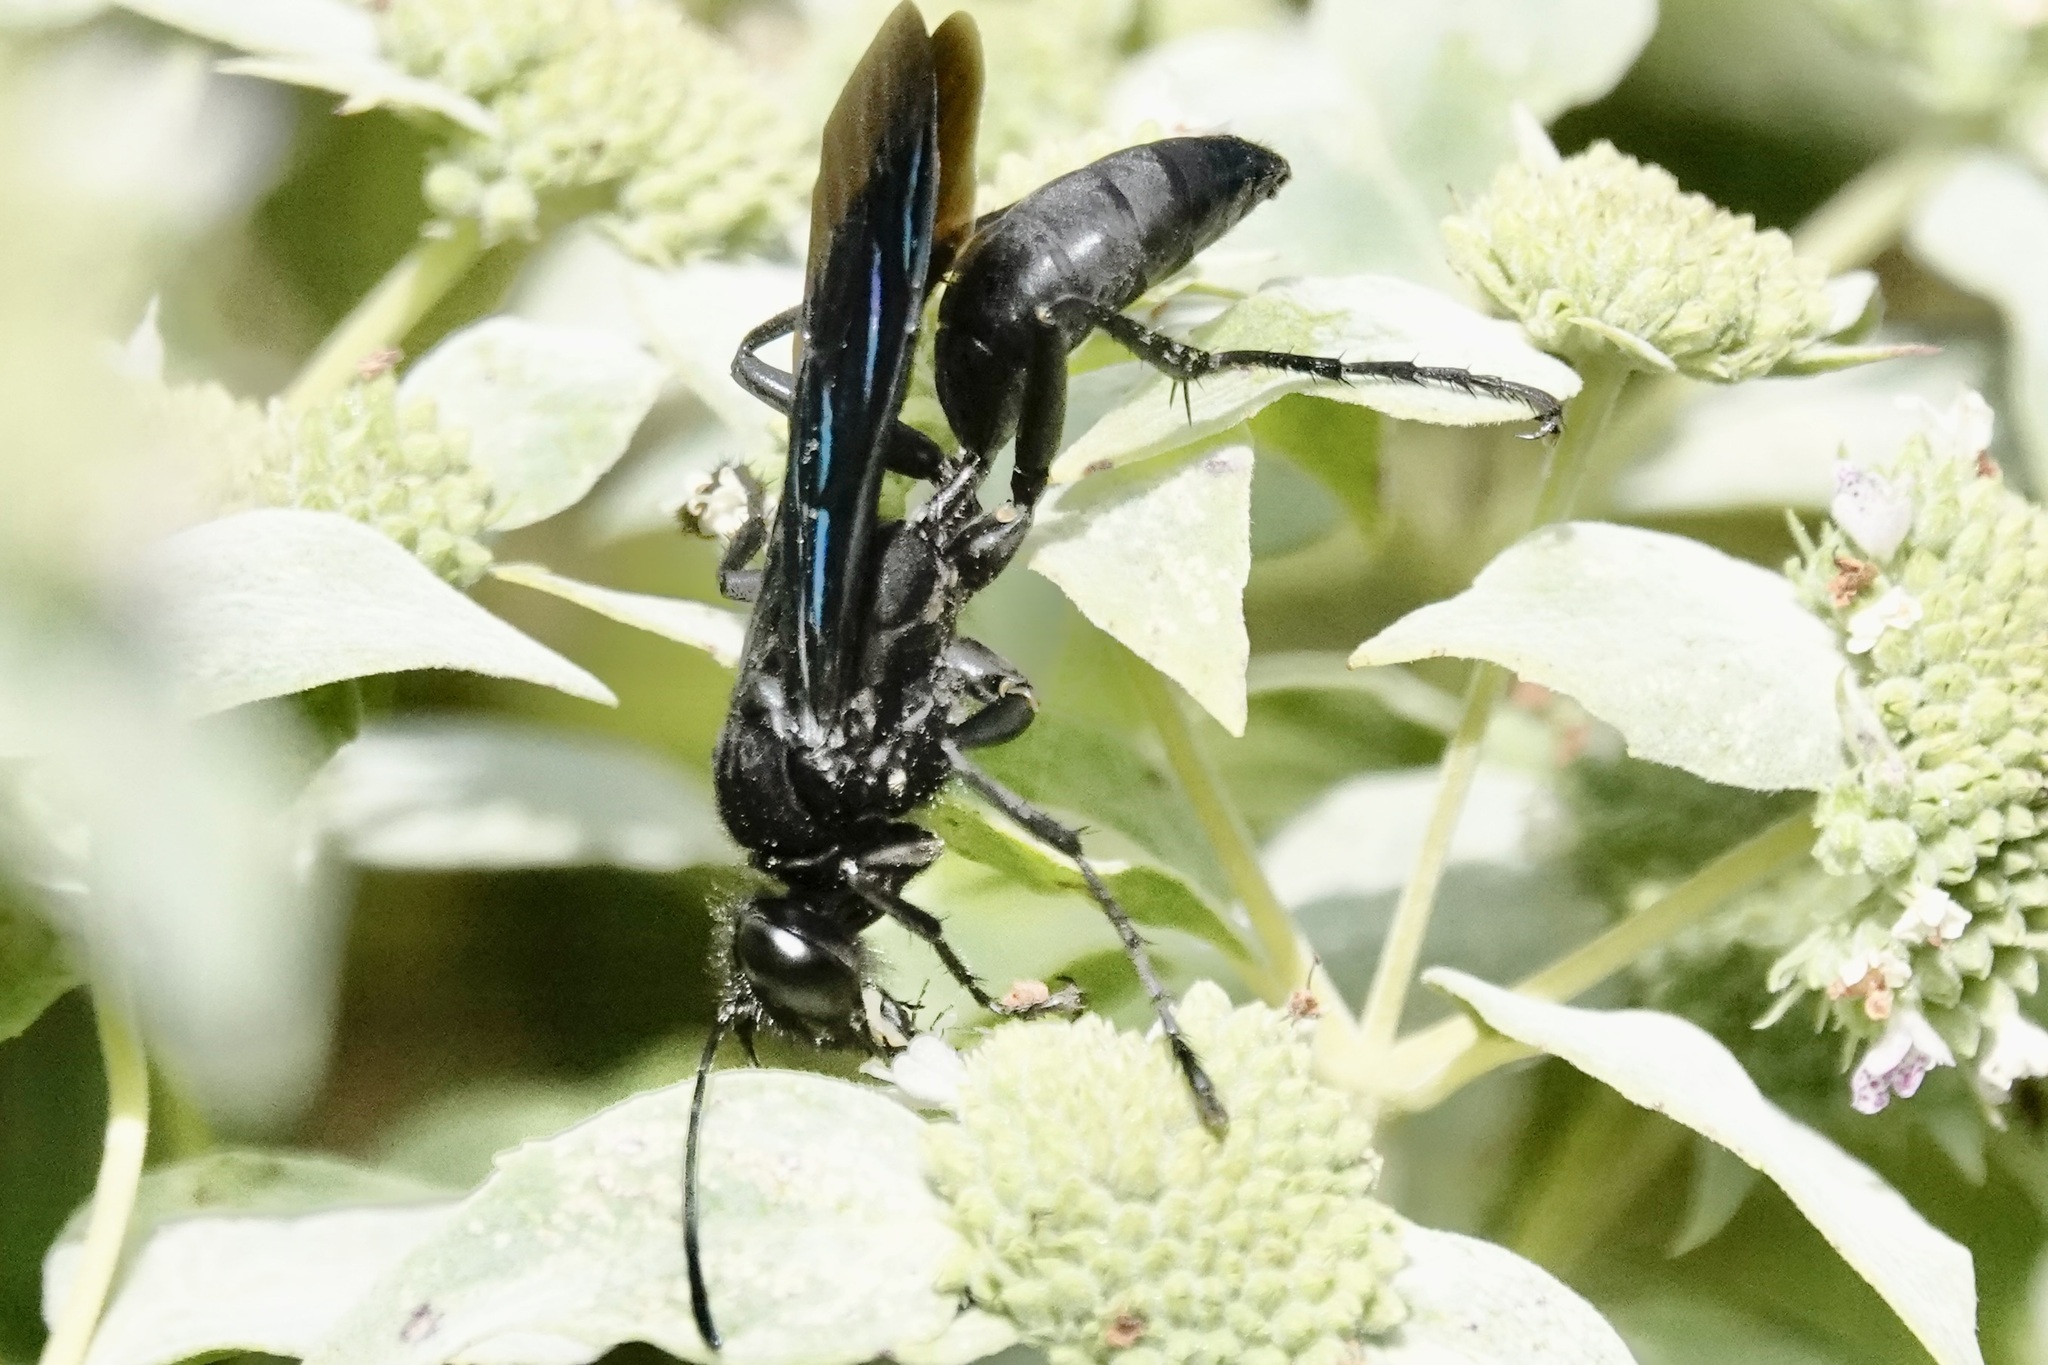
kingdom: Animalia
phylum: Arthropoda
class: Insecta
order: Hymenoptera
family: Sphecidae
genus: Sphex
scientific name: Sphex pensylvanicus
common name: Great black digger wasp
